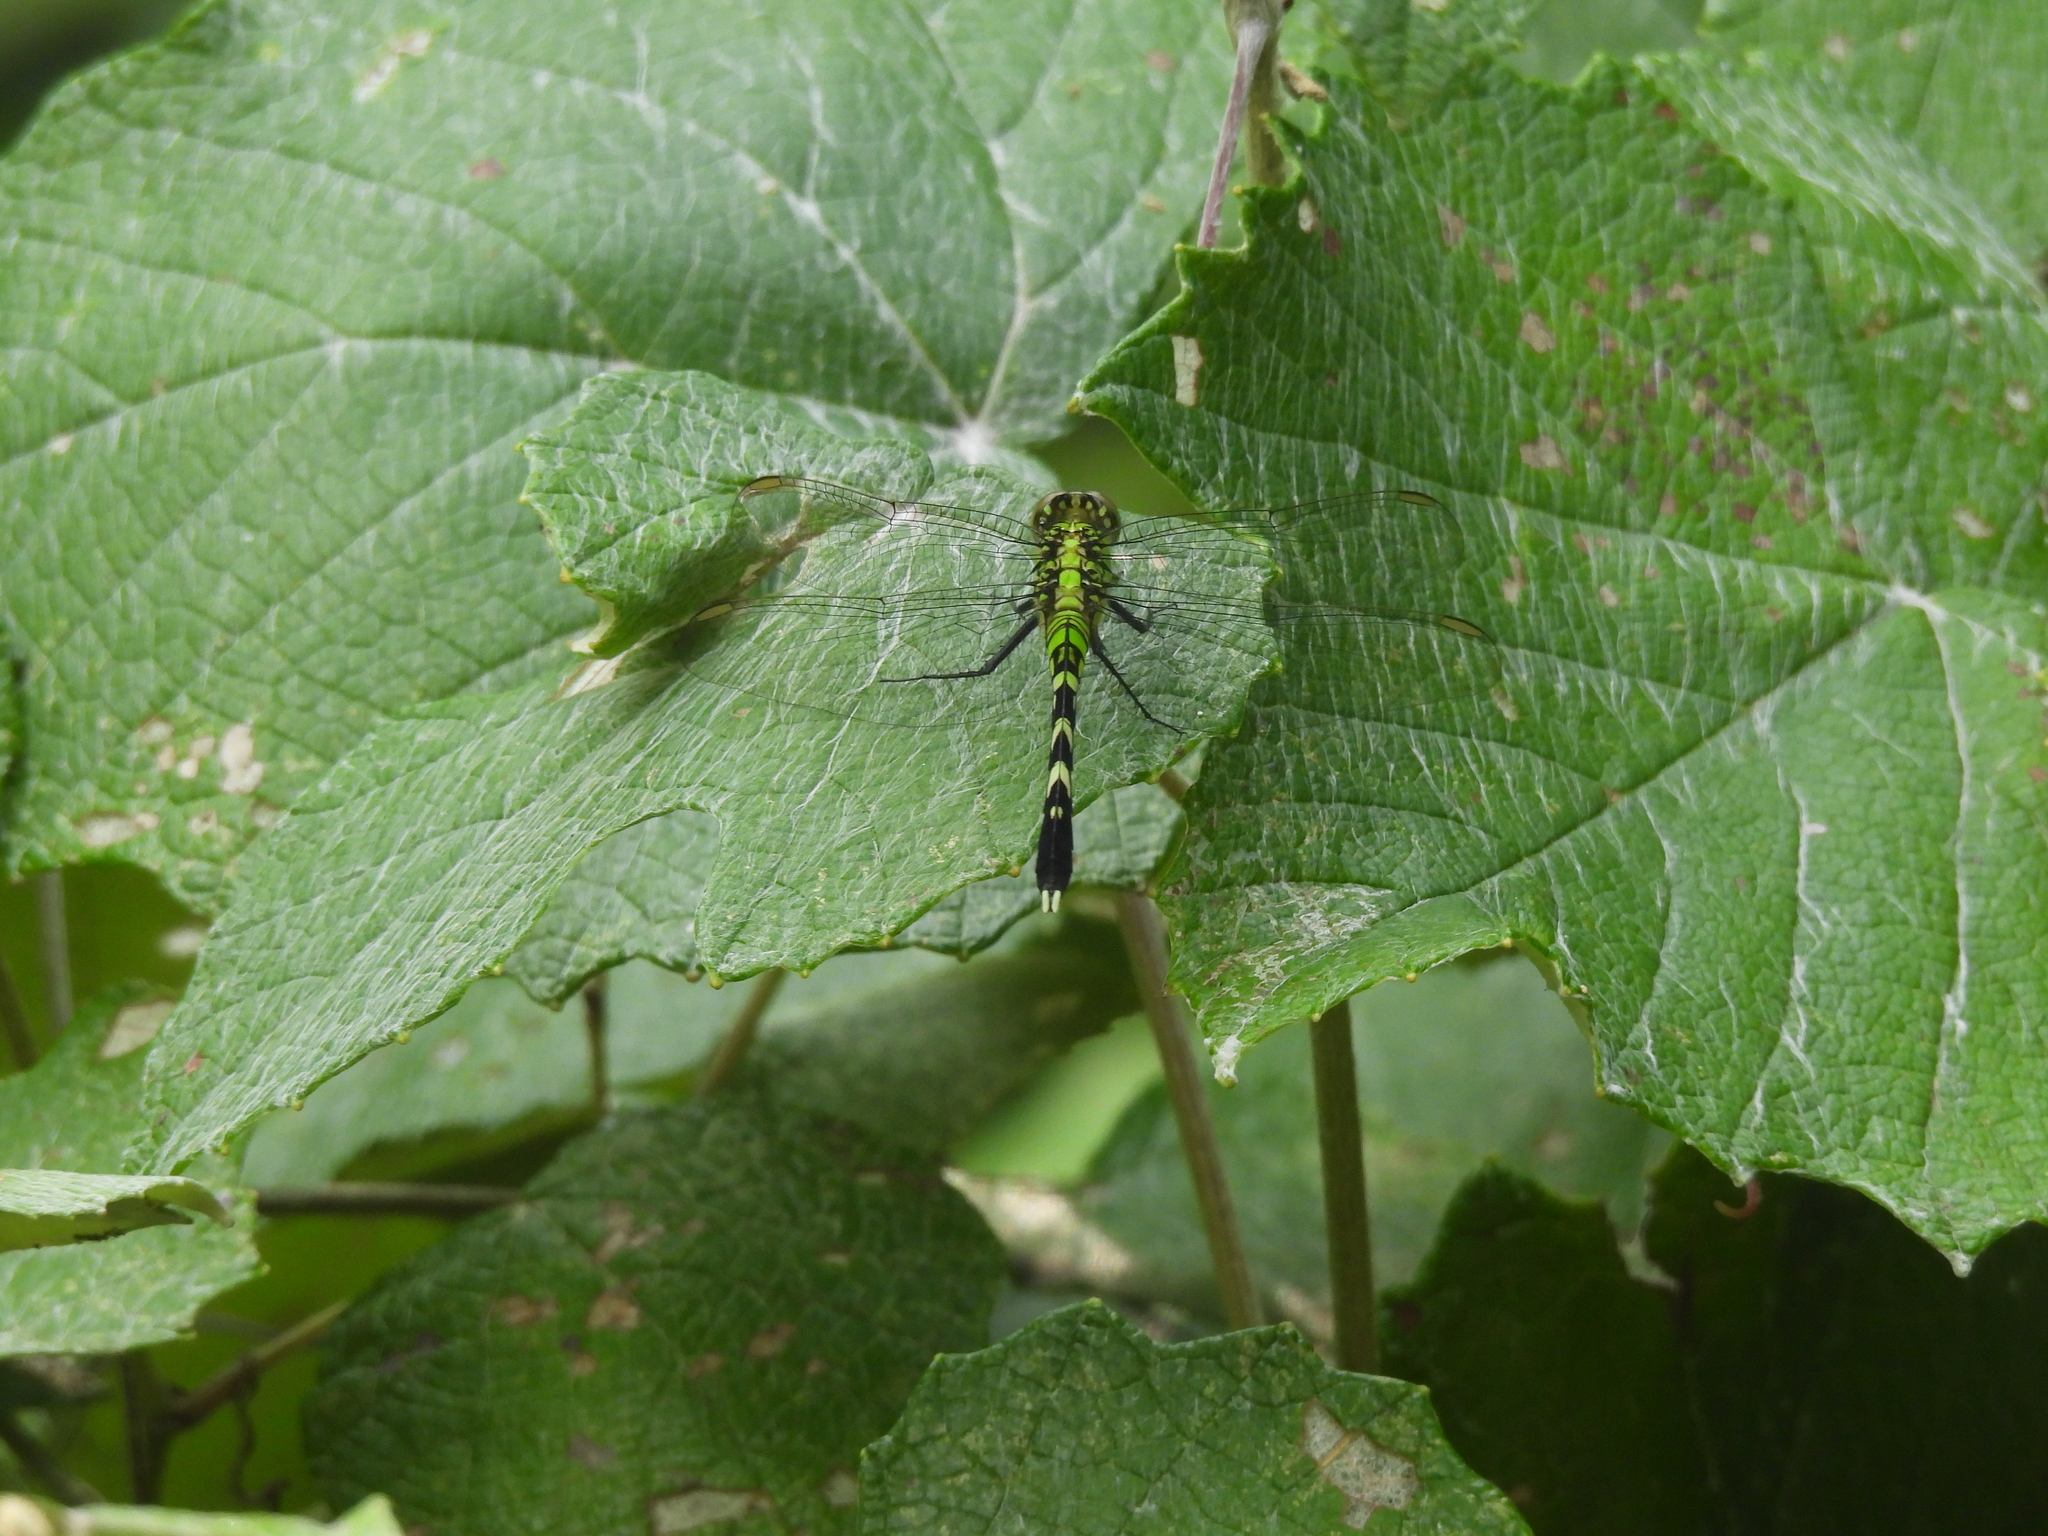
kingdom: Animalia
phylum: Arthropoda
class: Insecta
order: Odonata
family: Libellulidae
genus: Erythemis
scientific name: Erythemis simplicicollis
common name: Eastern pondhawk
